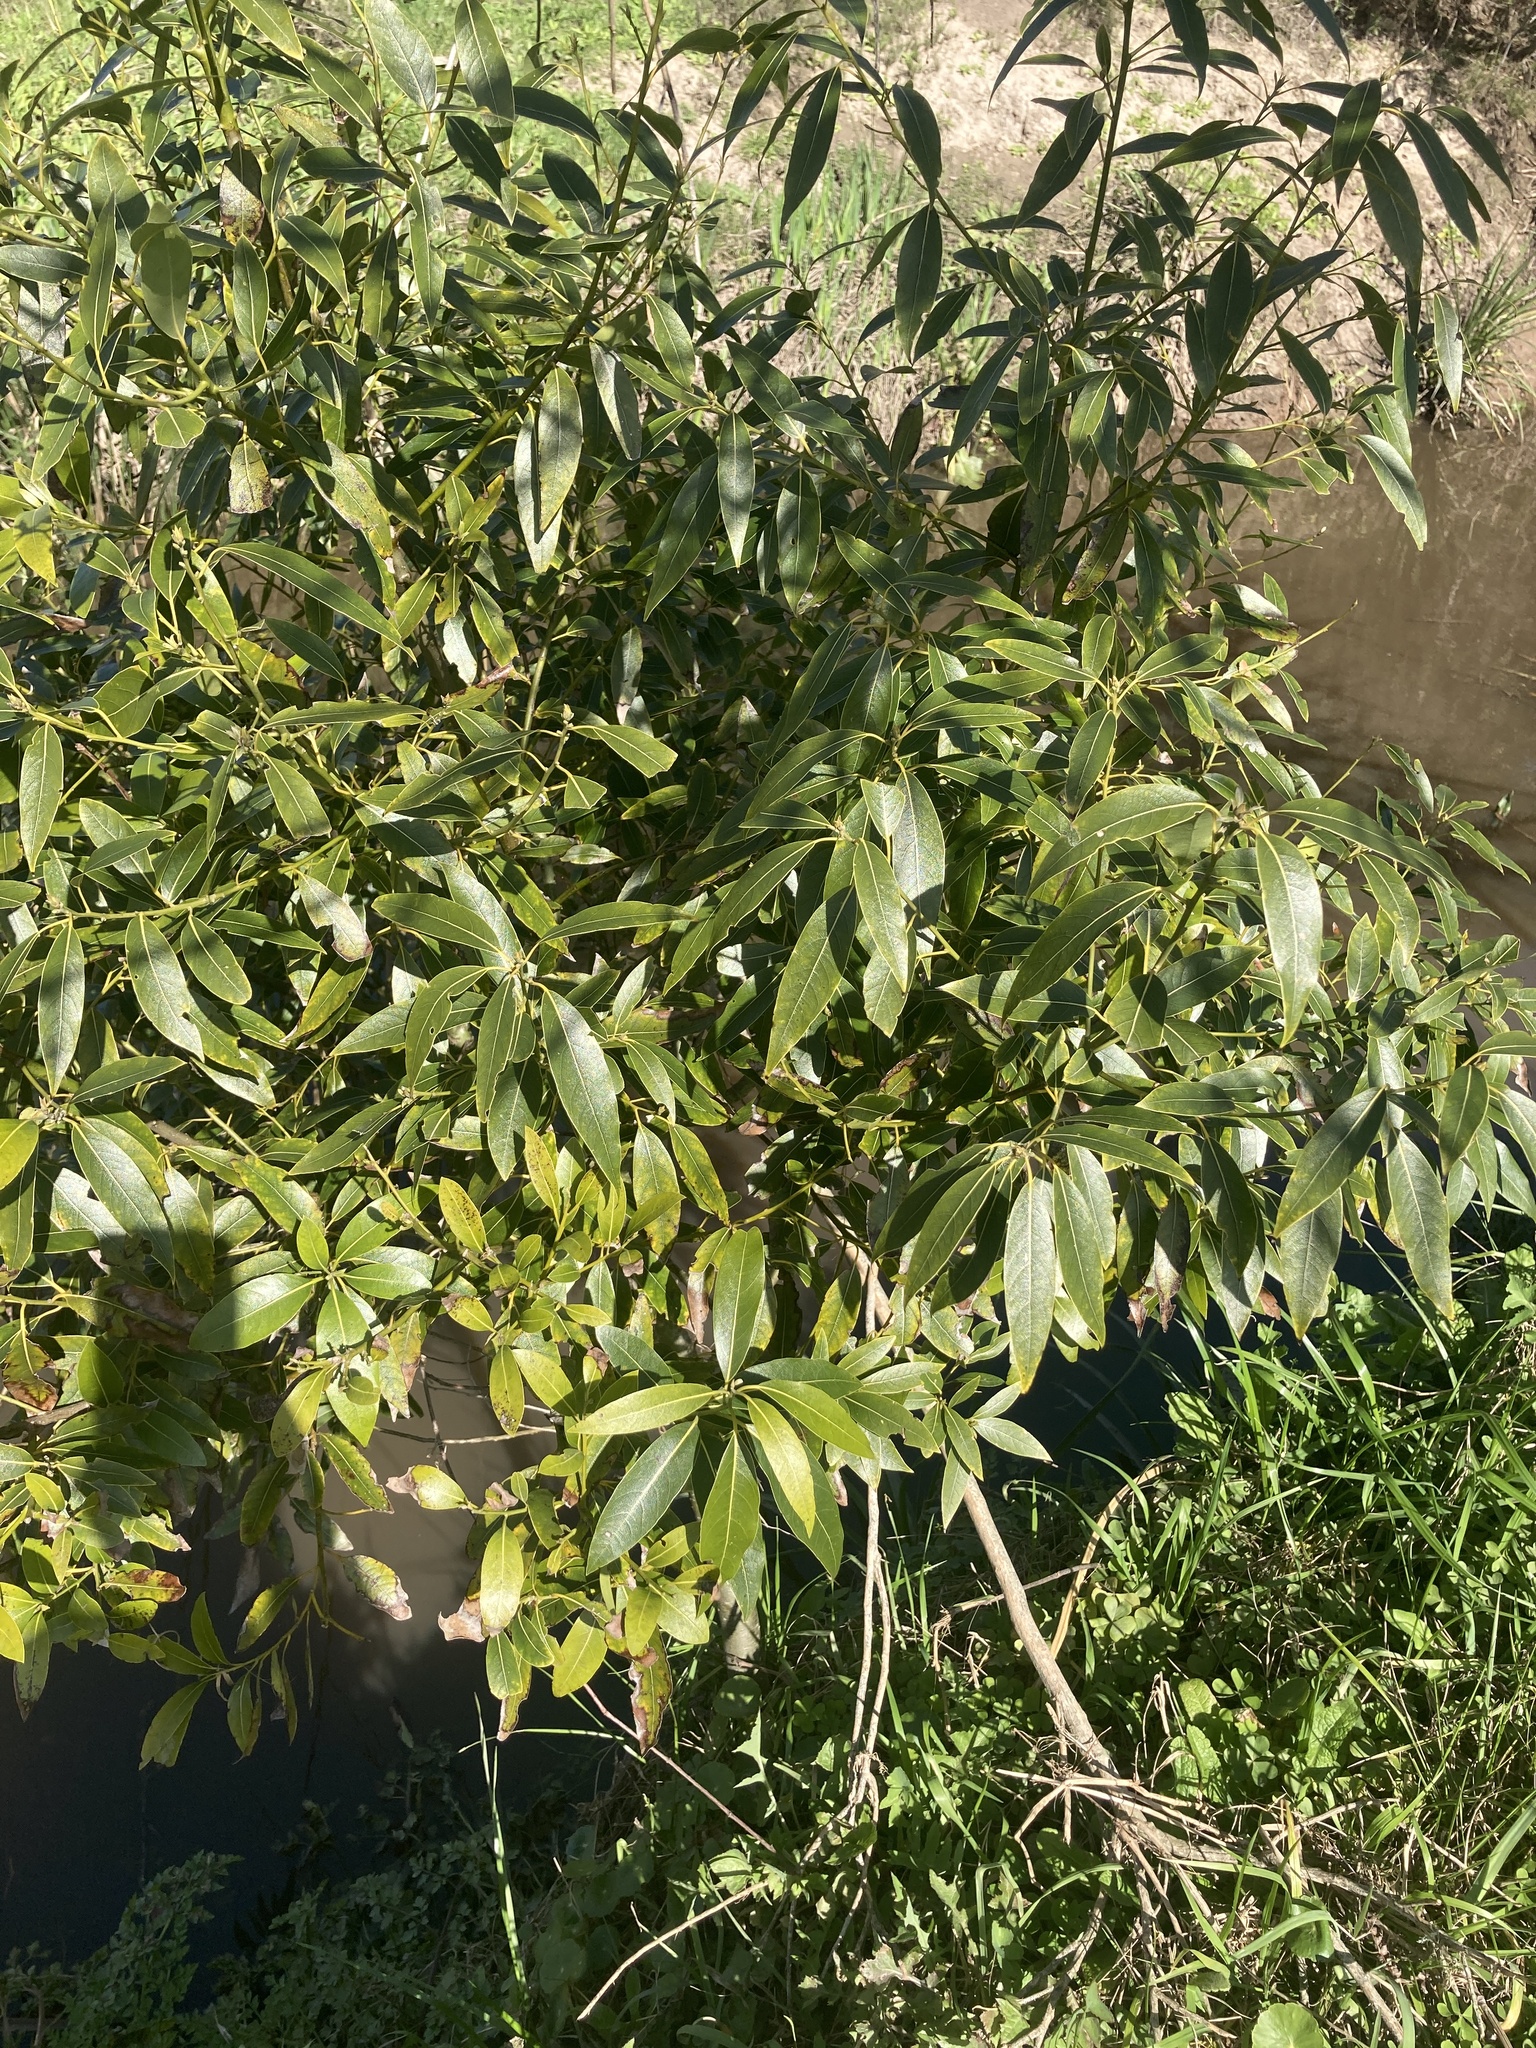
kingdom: Plantae
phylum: Tracheophyta
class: Magnoliopsida
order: Laurales
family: Lauraceae
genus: Ocotea
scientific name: Ocotea acutifolia
